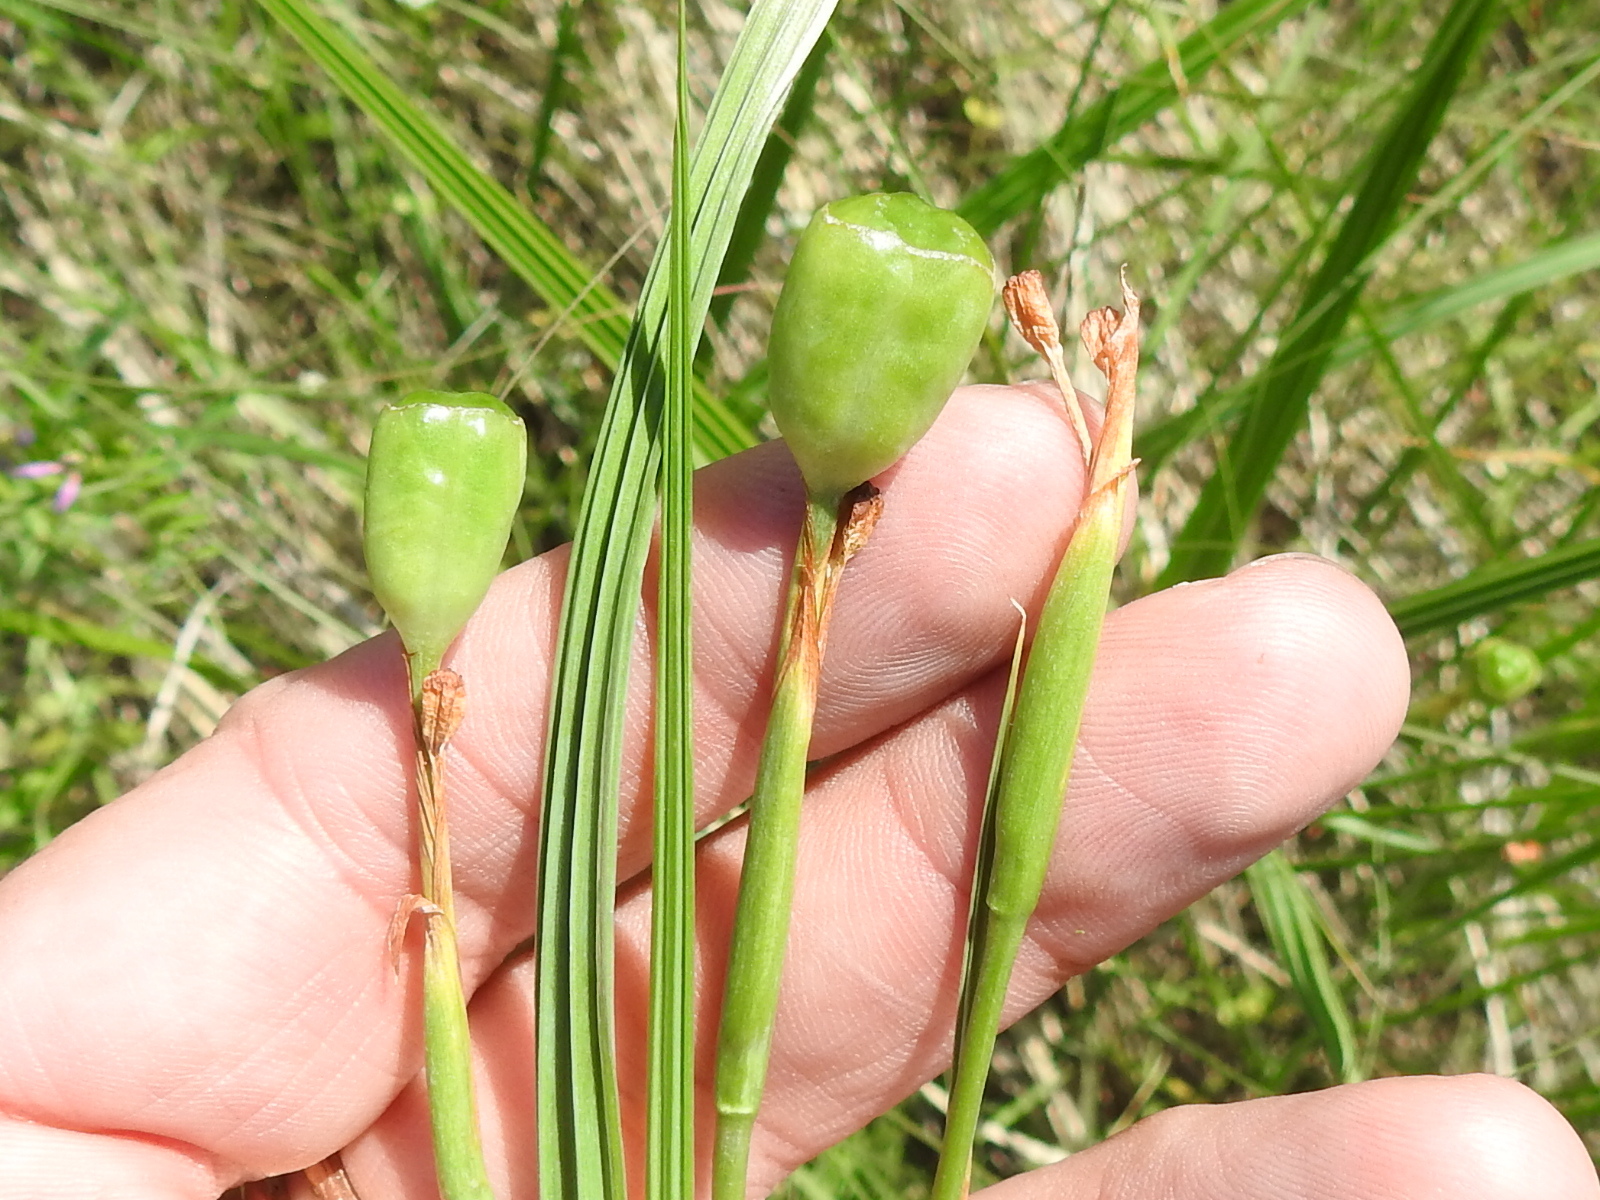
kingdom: Plantae
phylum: Tracheophyta
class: Liliopsida
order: Asparagales
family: Iridaceae
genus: Nemastylis
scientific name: Nemastylis geminiflora
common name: Prairie celestial
